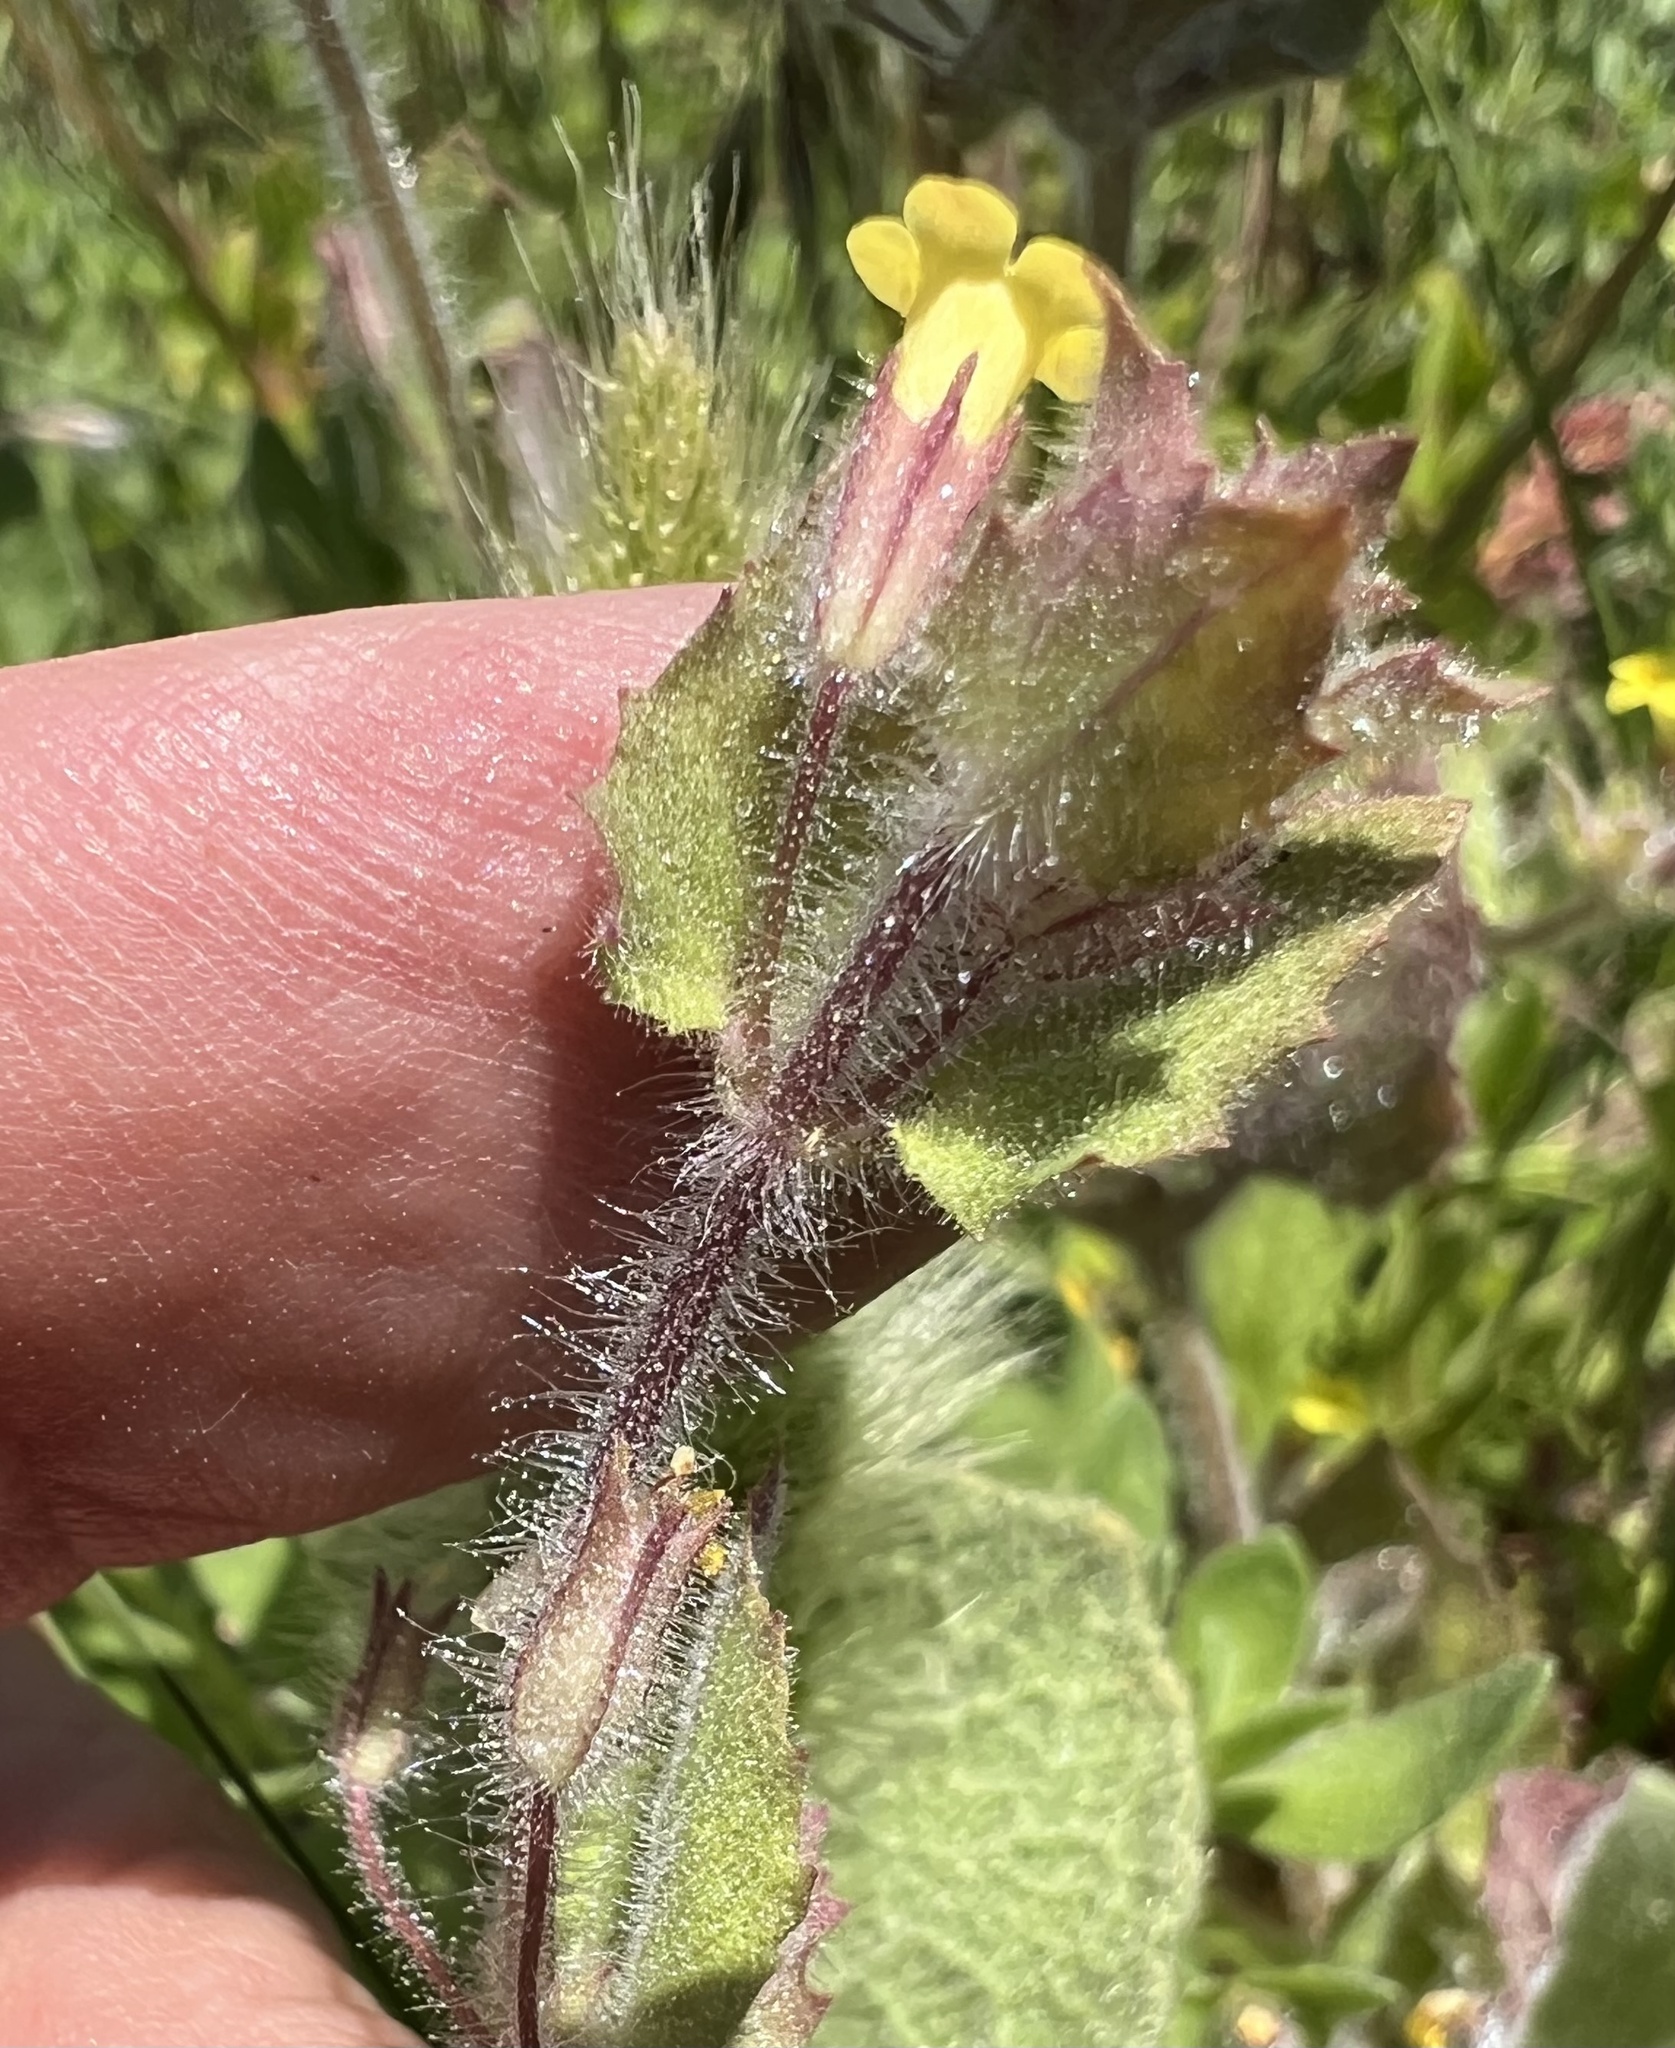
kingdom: Plantae
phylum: Tracheophyta
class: Magnoliopsida
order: Lamiales
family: Phrymaceae
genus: Erythranthe
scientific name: Erythranthe floribunda
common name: Floriferous monkeyflower
